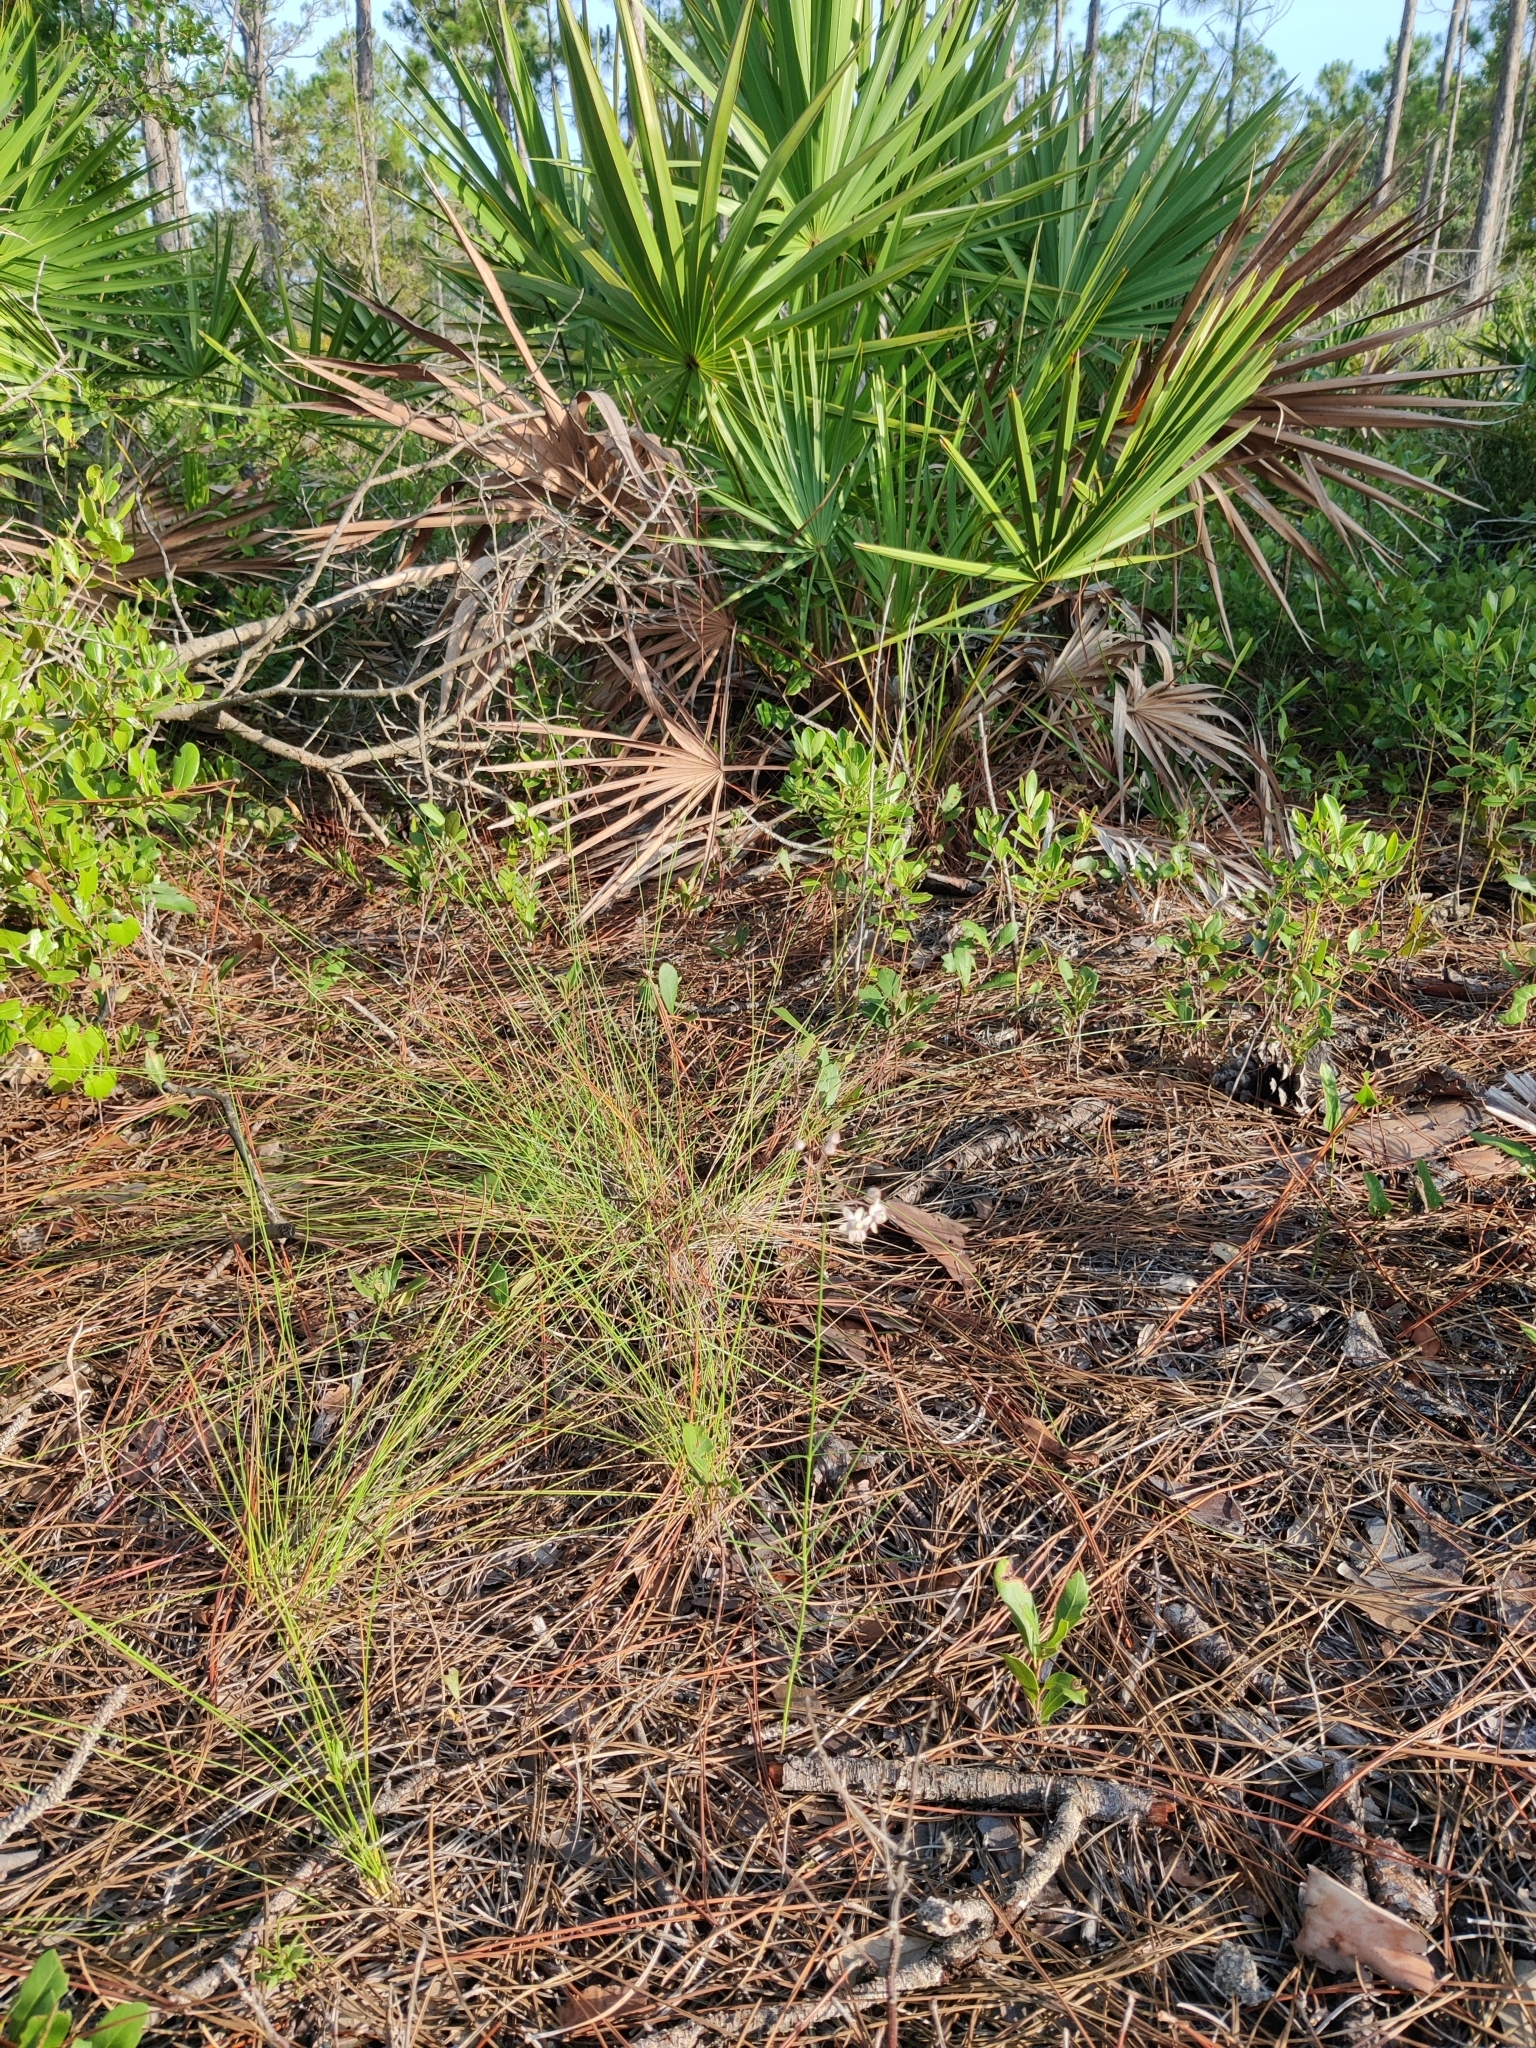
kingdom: Plantae
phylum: Tracheophyta
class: Magnoliopsida
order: Gentianales
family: Apocynaceae
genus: Asclepias
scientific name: Asclepias cinerea
